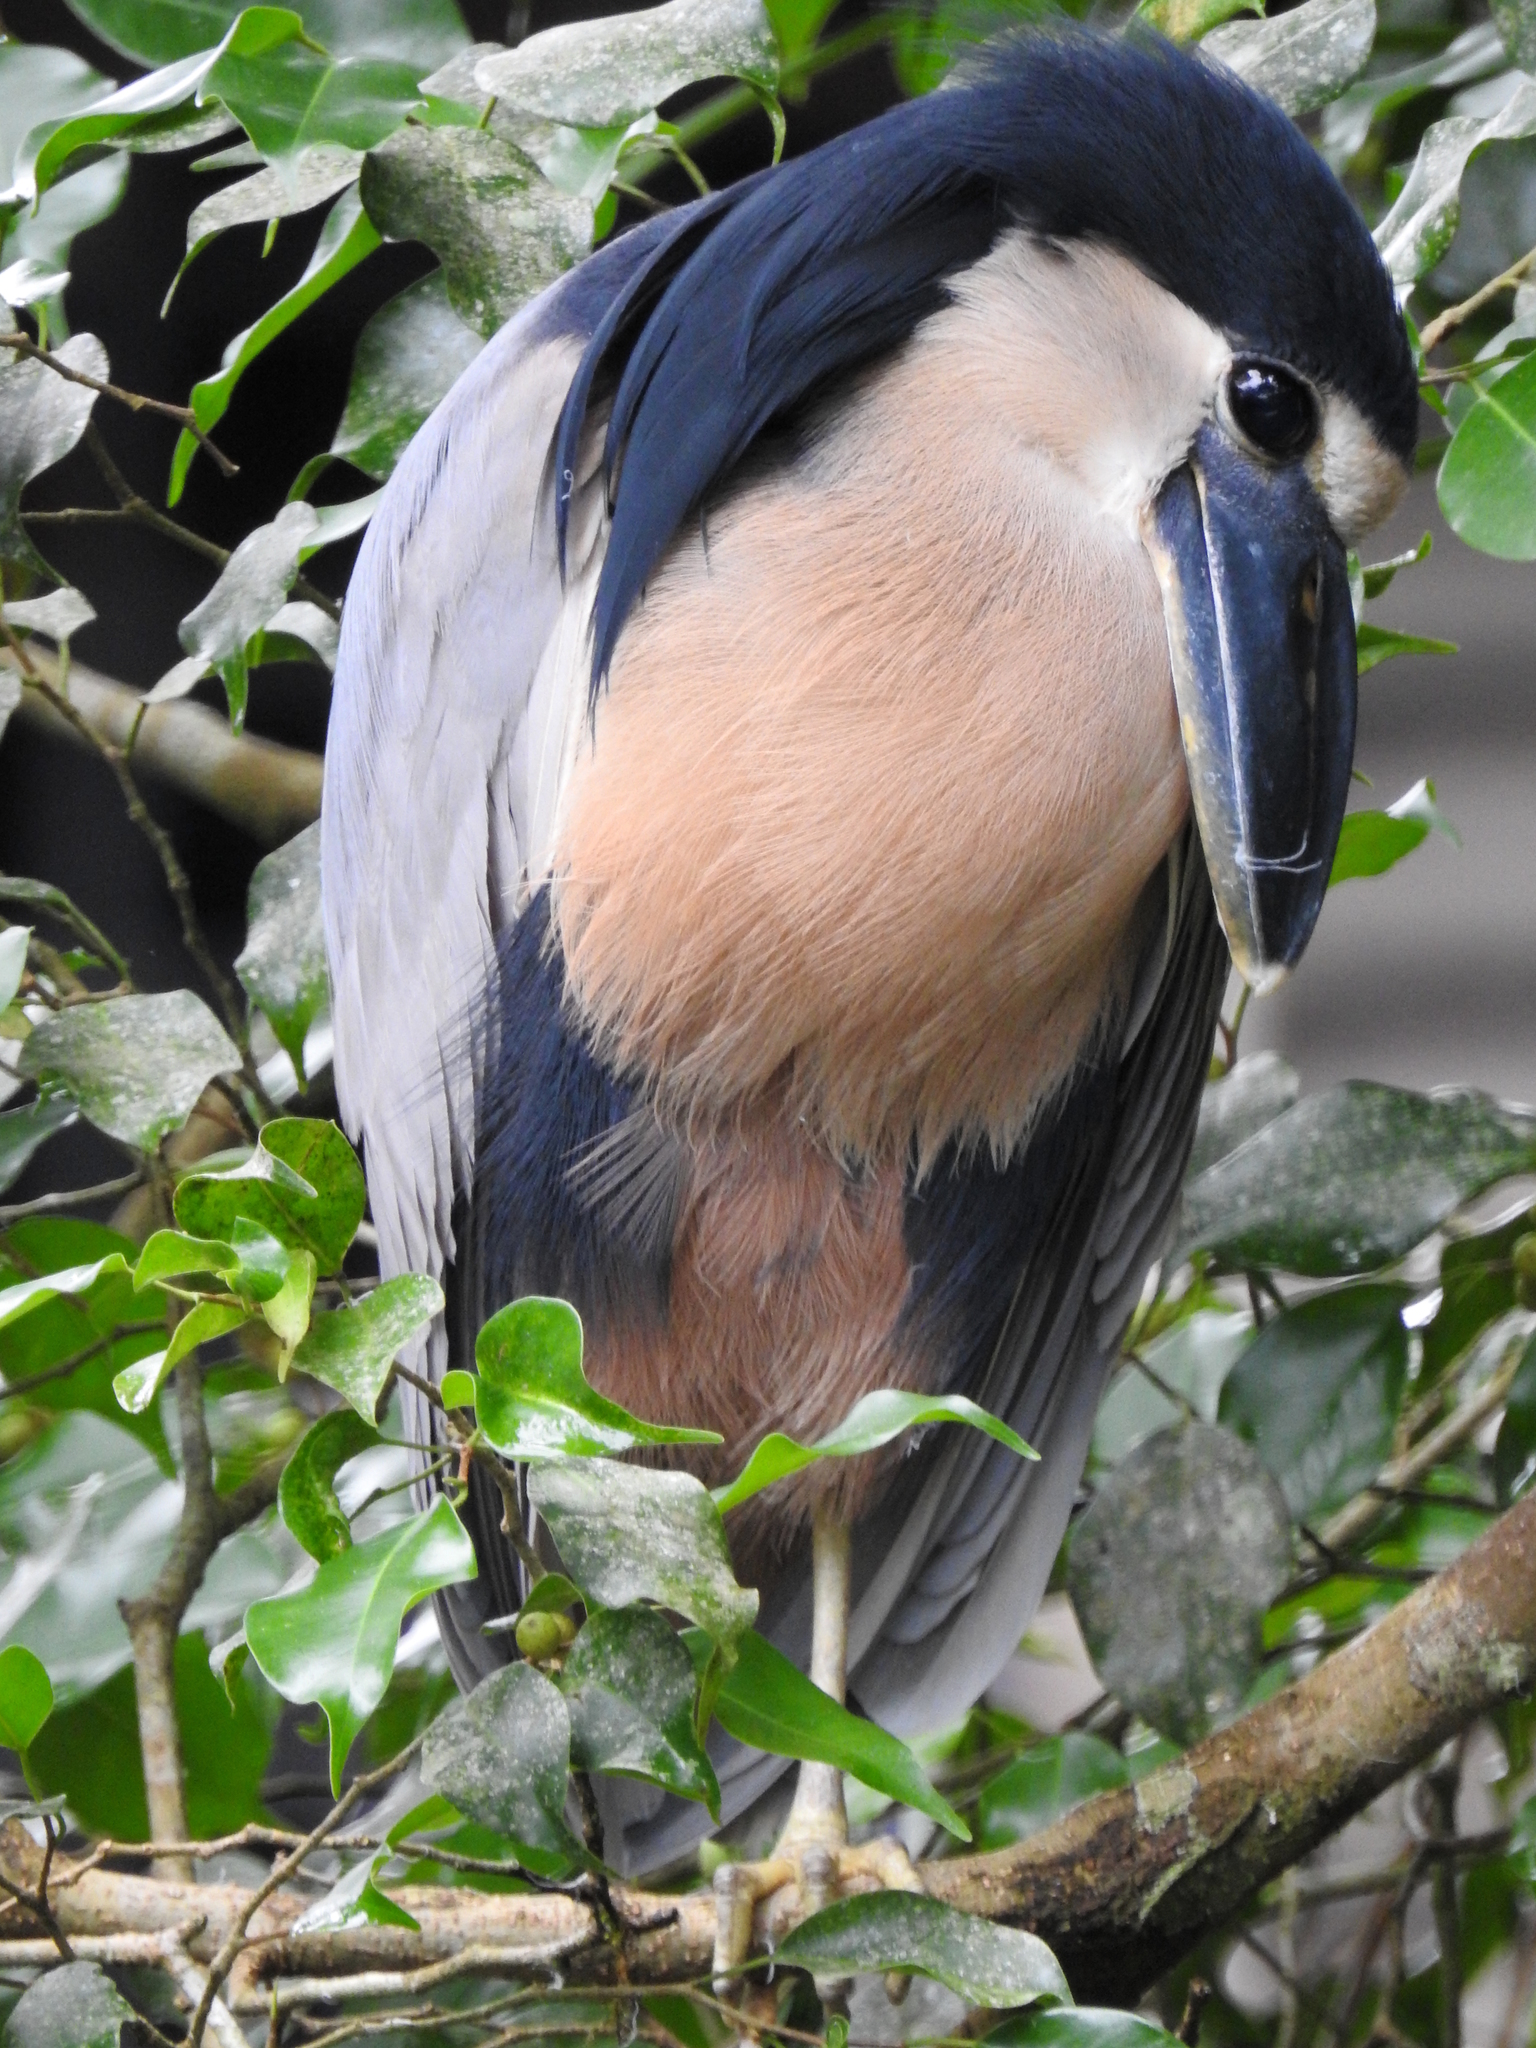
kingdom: Animalia
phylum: Chordata
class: Aves
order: Pelecaniformes
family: Ardeidae
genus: Cochlearius
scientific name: Cochlearius cochlearius
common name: Boat-billed heron
